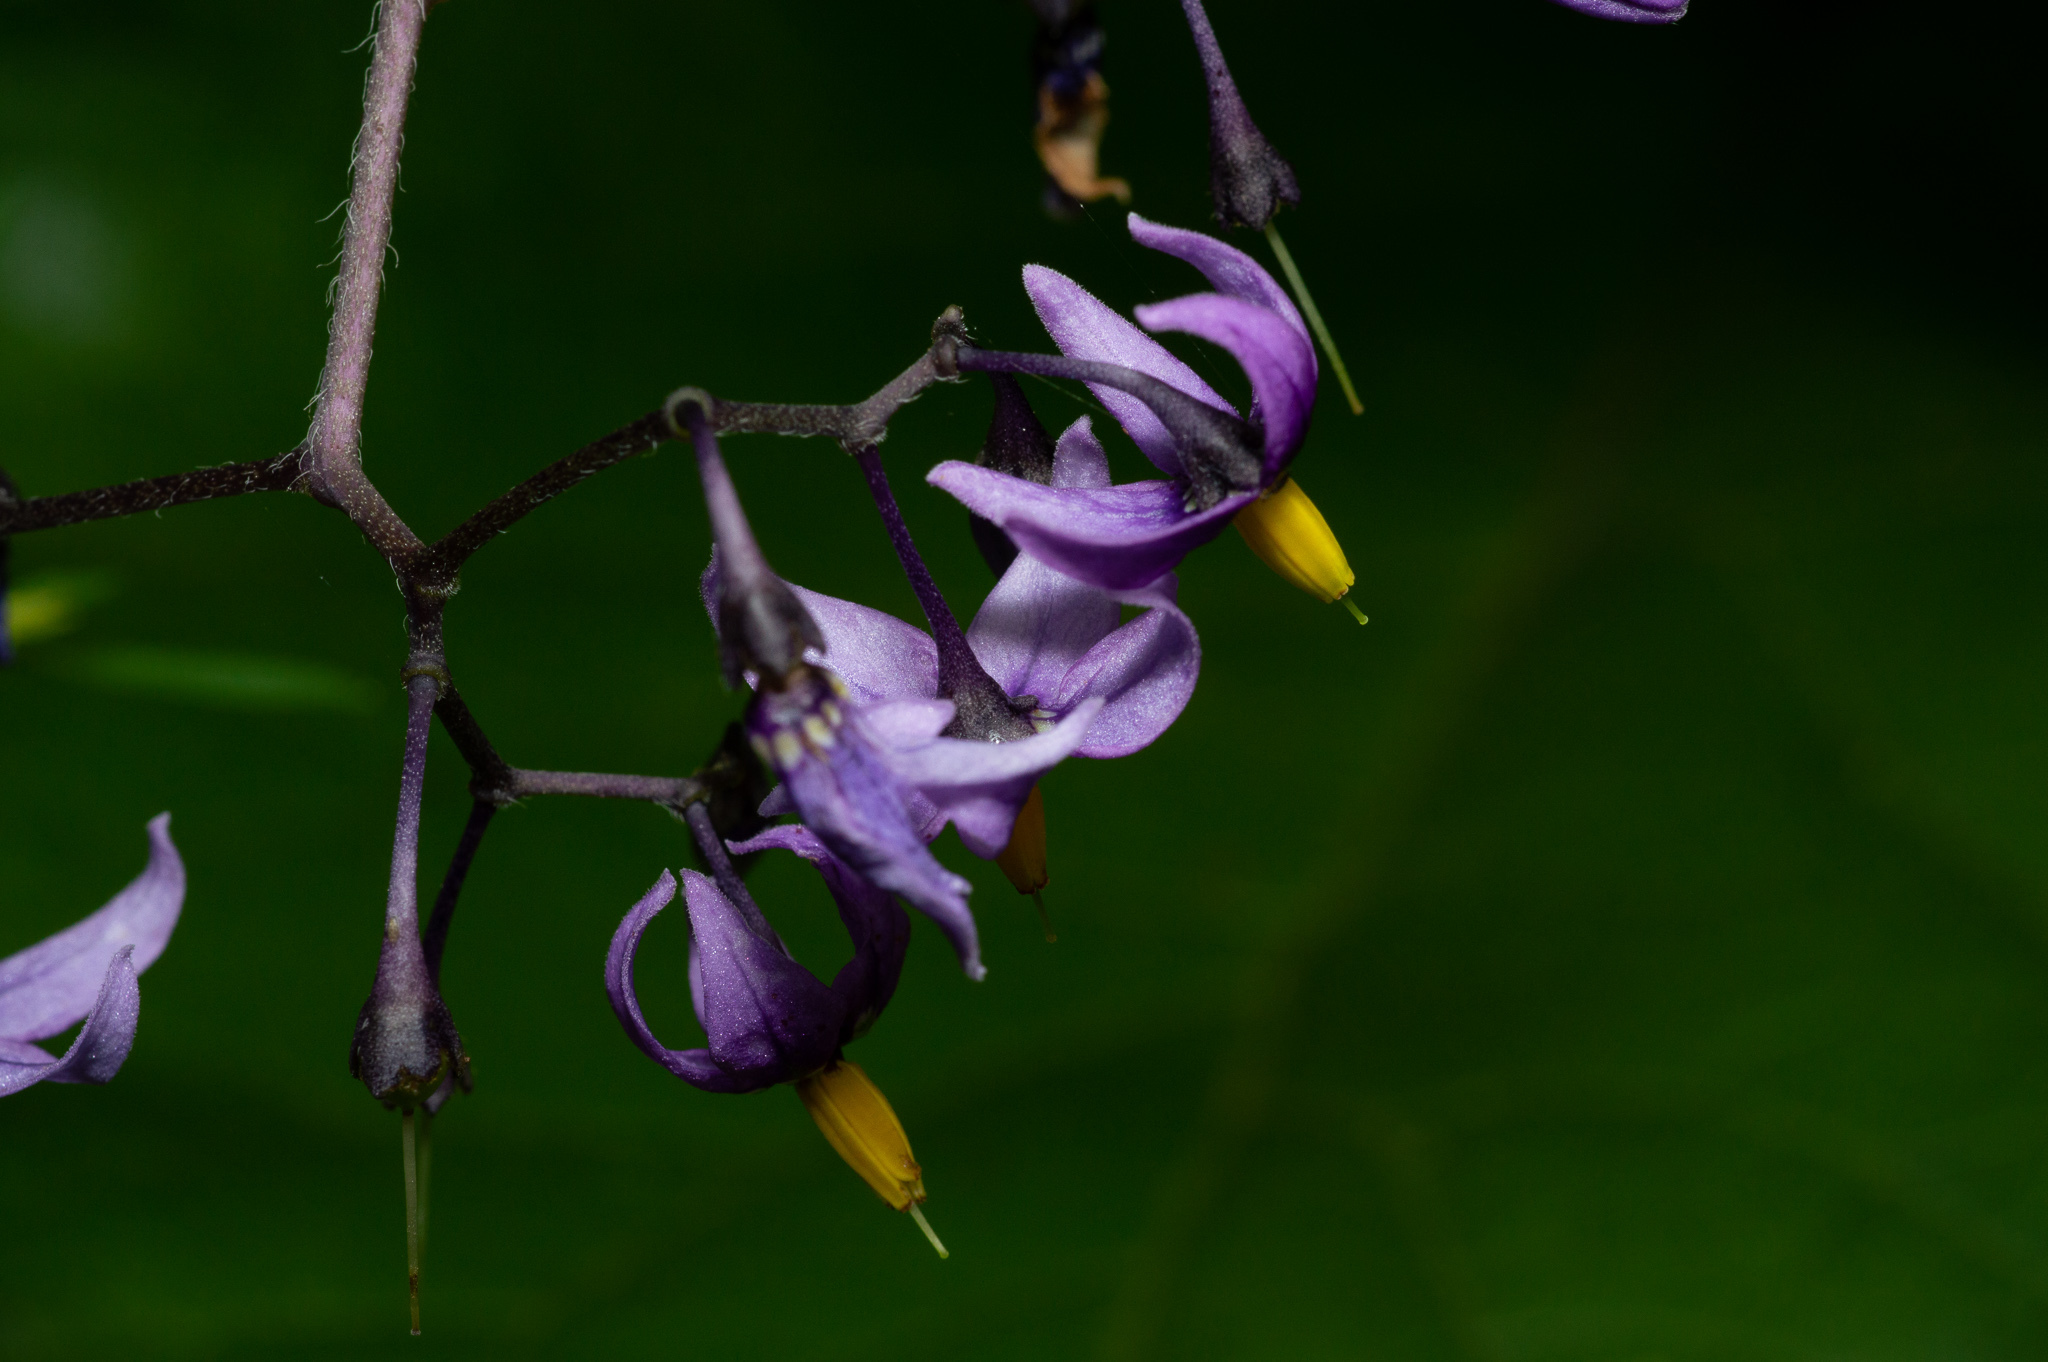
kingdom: Plantae
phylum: Tracheophyta
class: Magnoliopsida
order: Solanales
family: Solanaceae
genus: Solanum
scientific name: Solanum dulcamara
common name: Climbing nightshade
